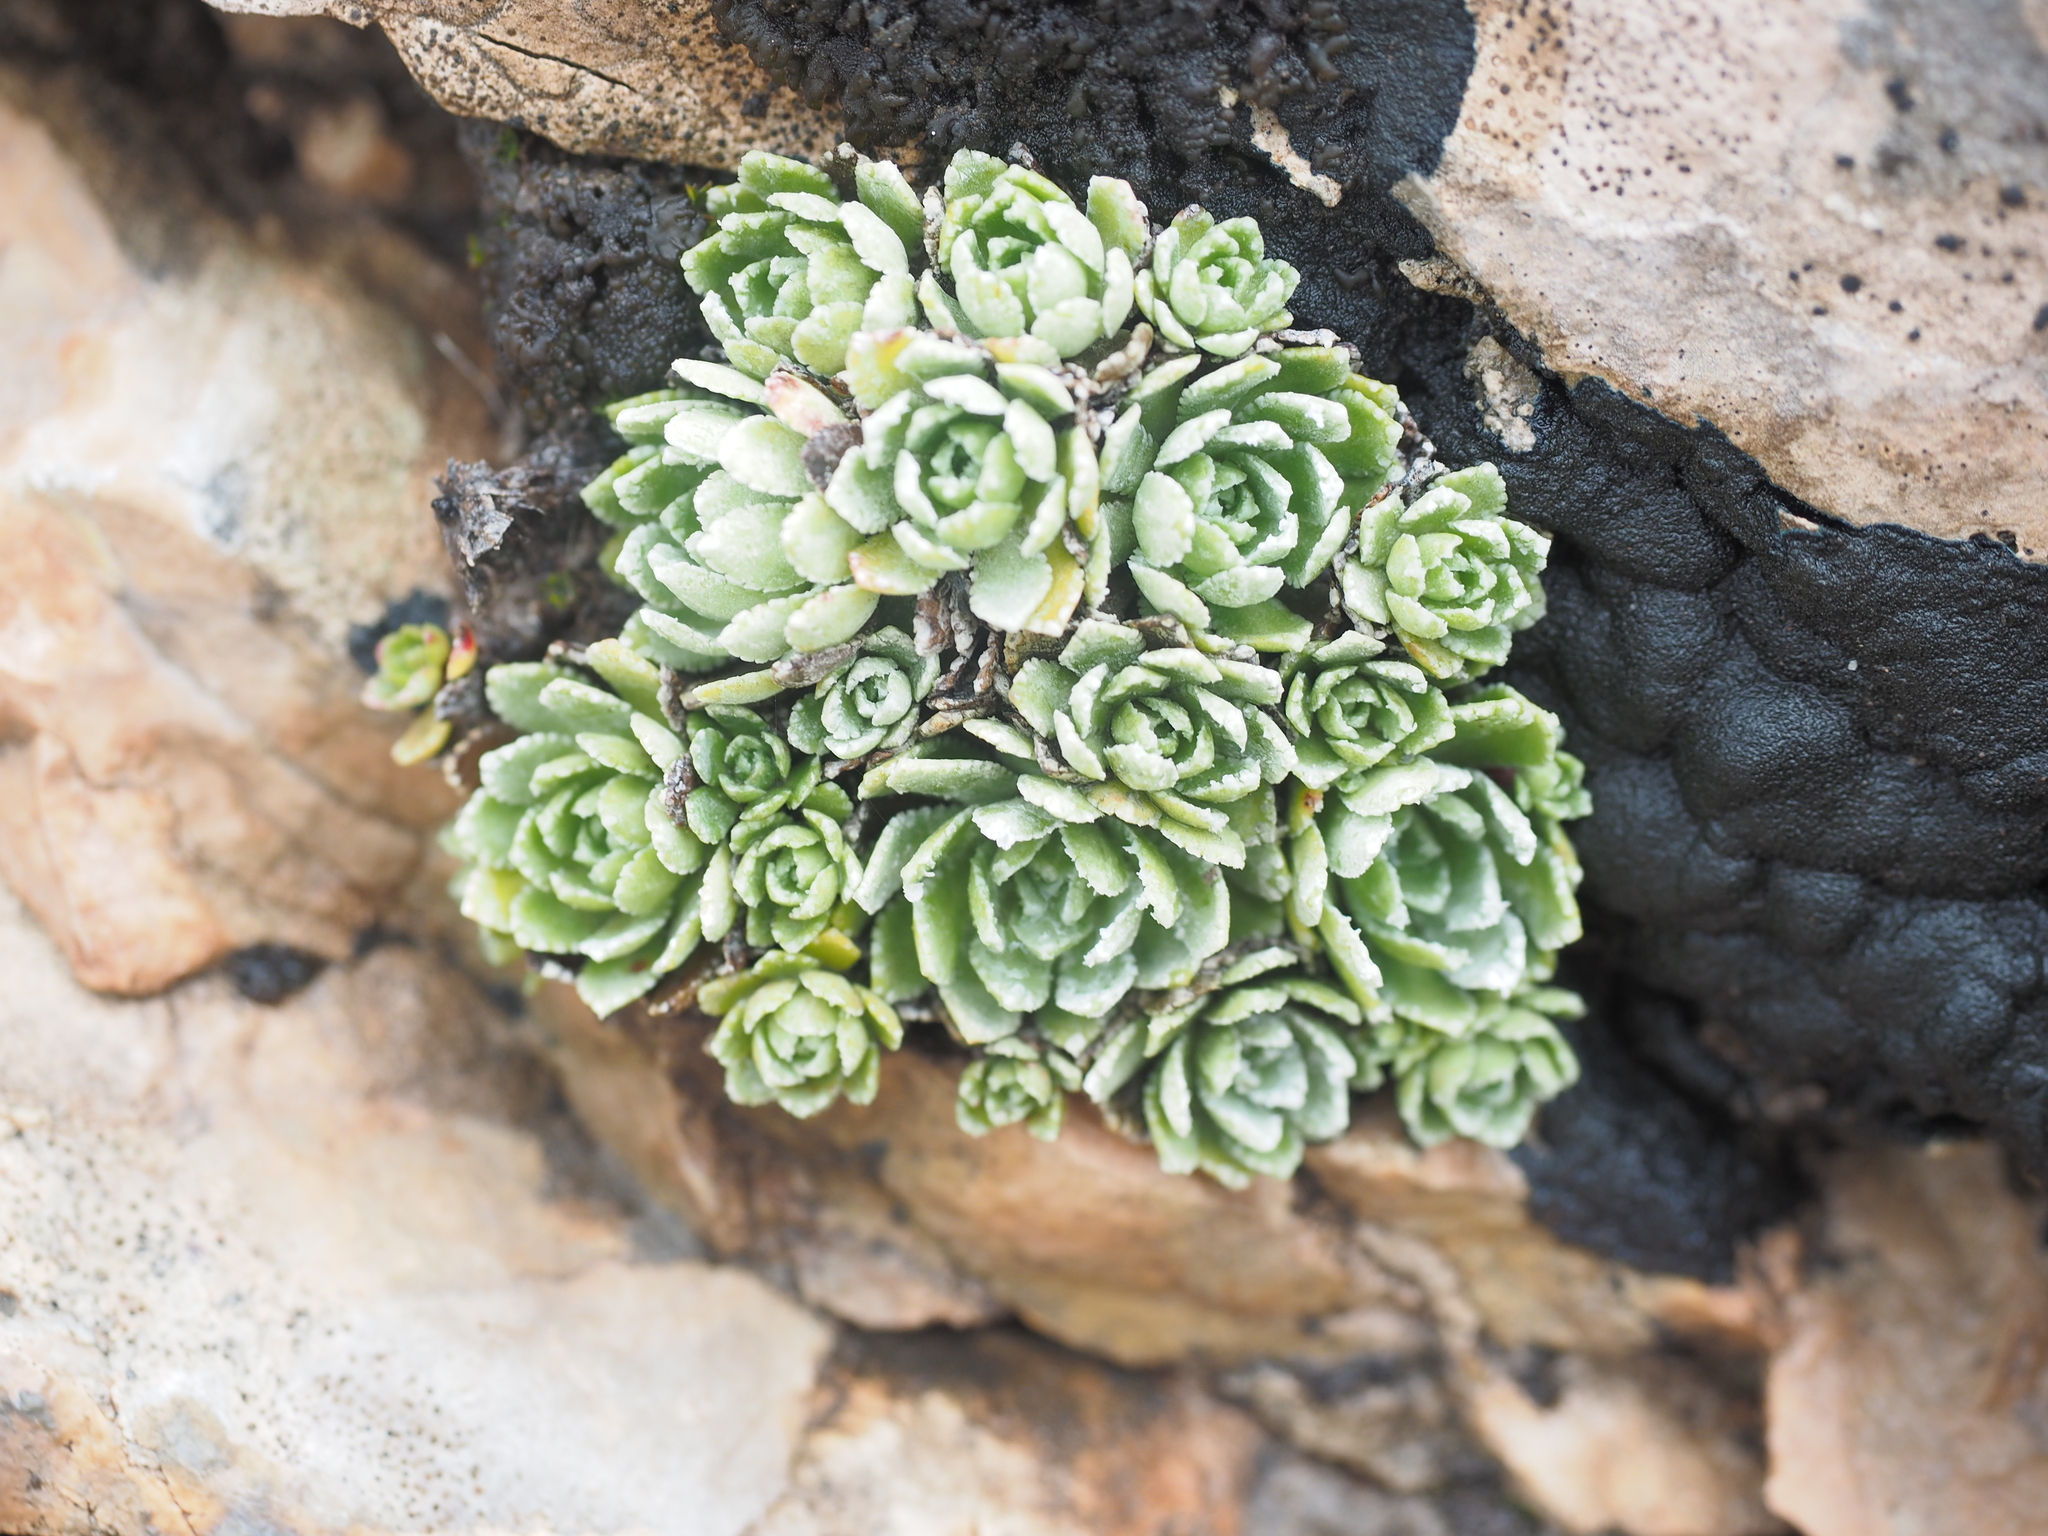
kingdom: Plantae
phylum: Tracheophyta
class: Magnoliopsida
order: Saxifragales
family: Saxifragaceae
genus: Saxifraga
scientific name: Saxifraga paniculata
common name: Livelong saxifrage
